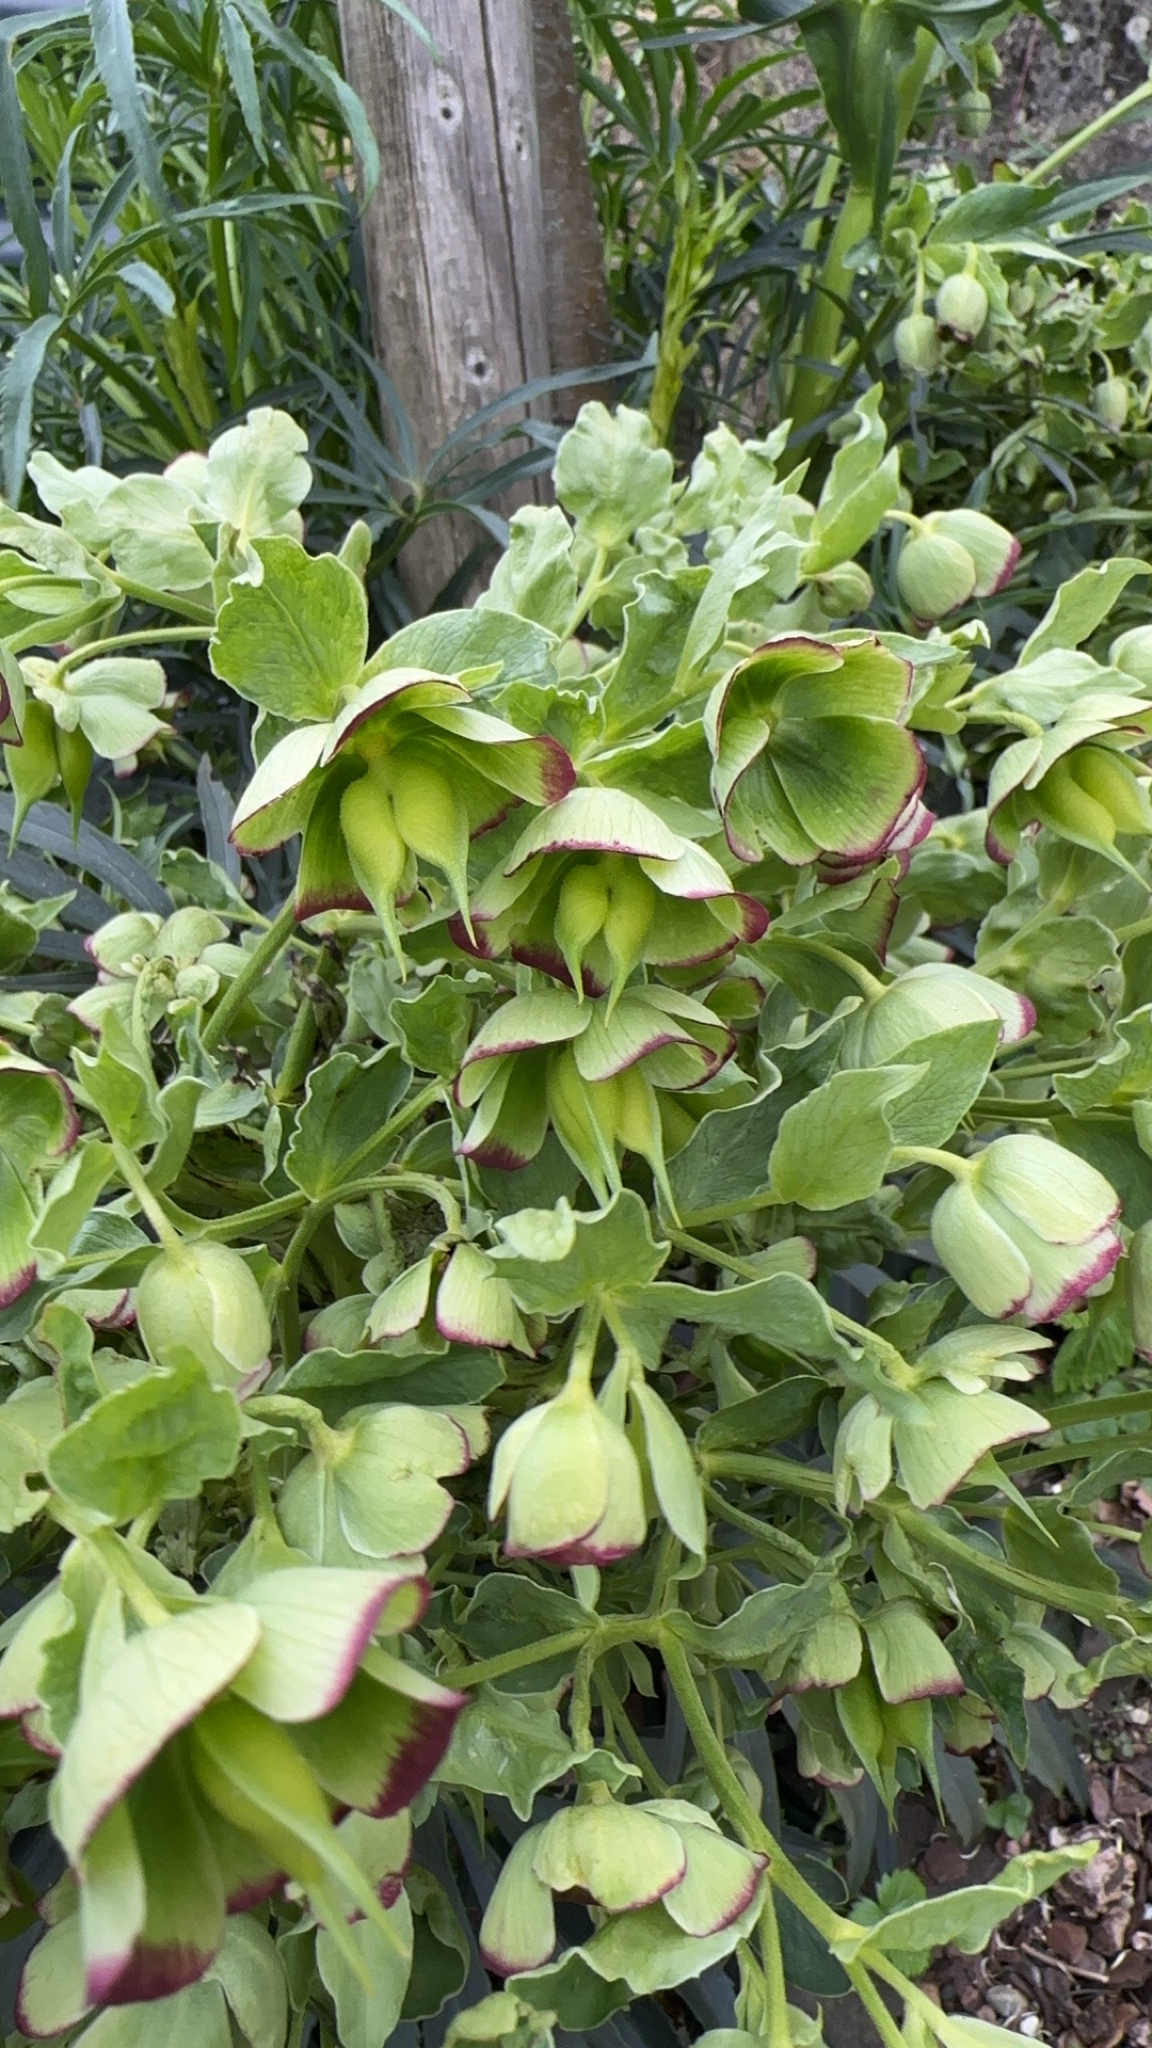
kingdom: Plantae
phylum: Tracheophyta
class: Magnoliopsida
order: Ranunculales
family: Ranunculaceae
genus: Helleborus
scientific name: Helleborus foetidus
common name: Stinking hellebore
